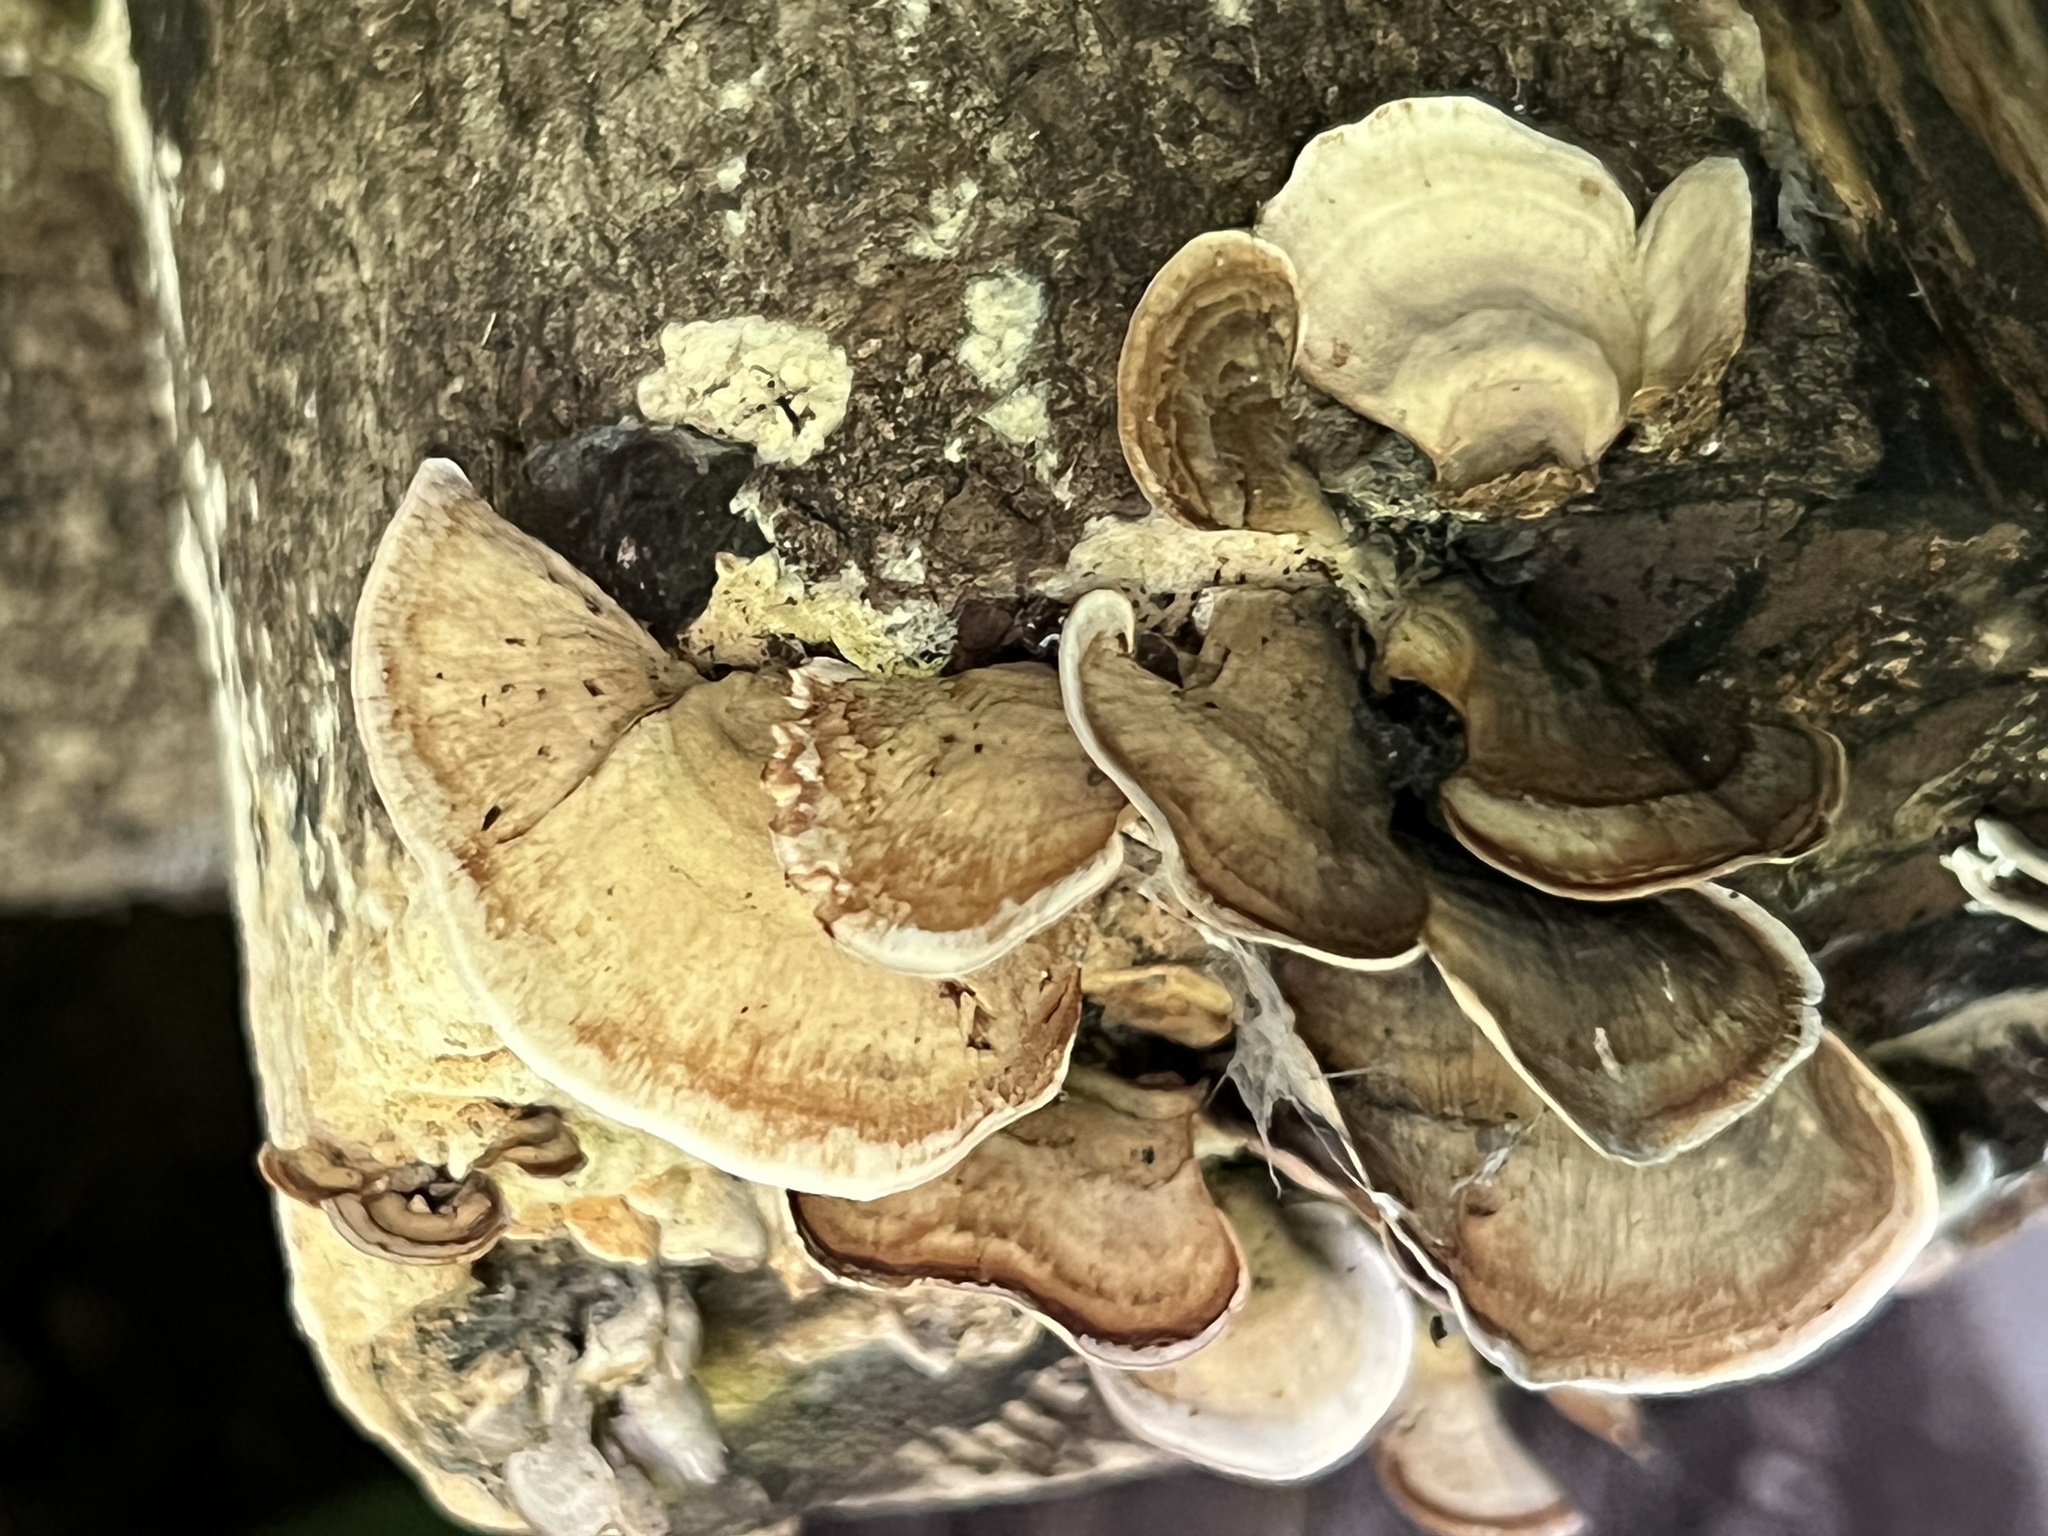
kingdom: Fungi
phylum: Basidiomycota
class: Agaricomycetes
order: Russulales
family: Stereaceae
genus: Stereum
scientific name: Stereum lobatum
